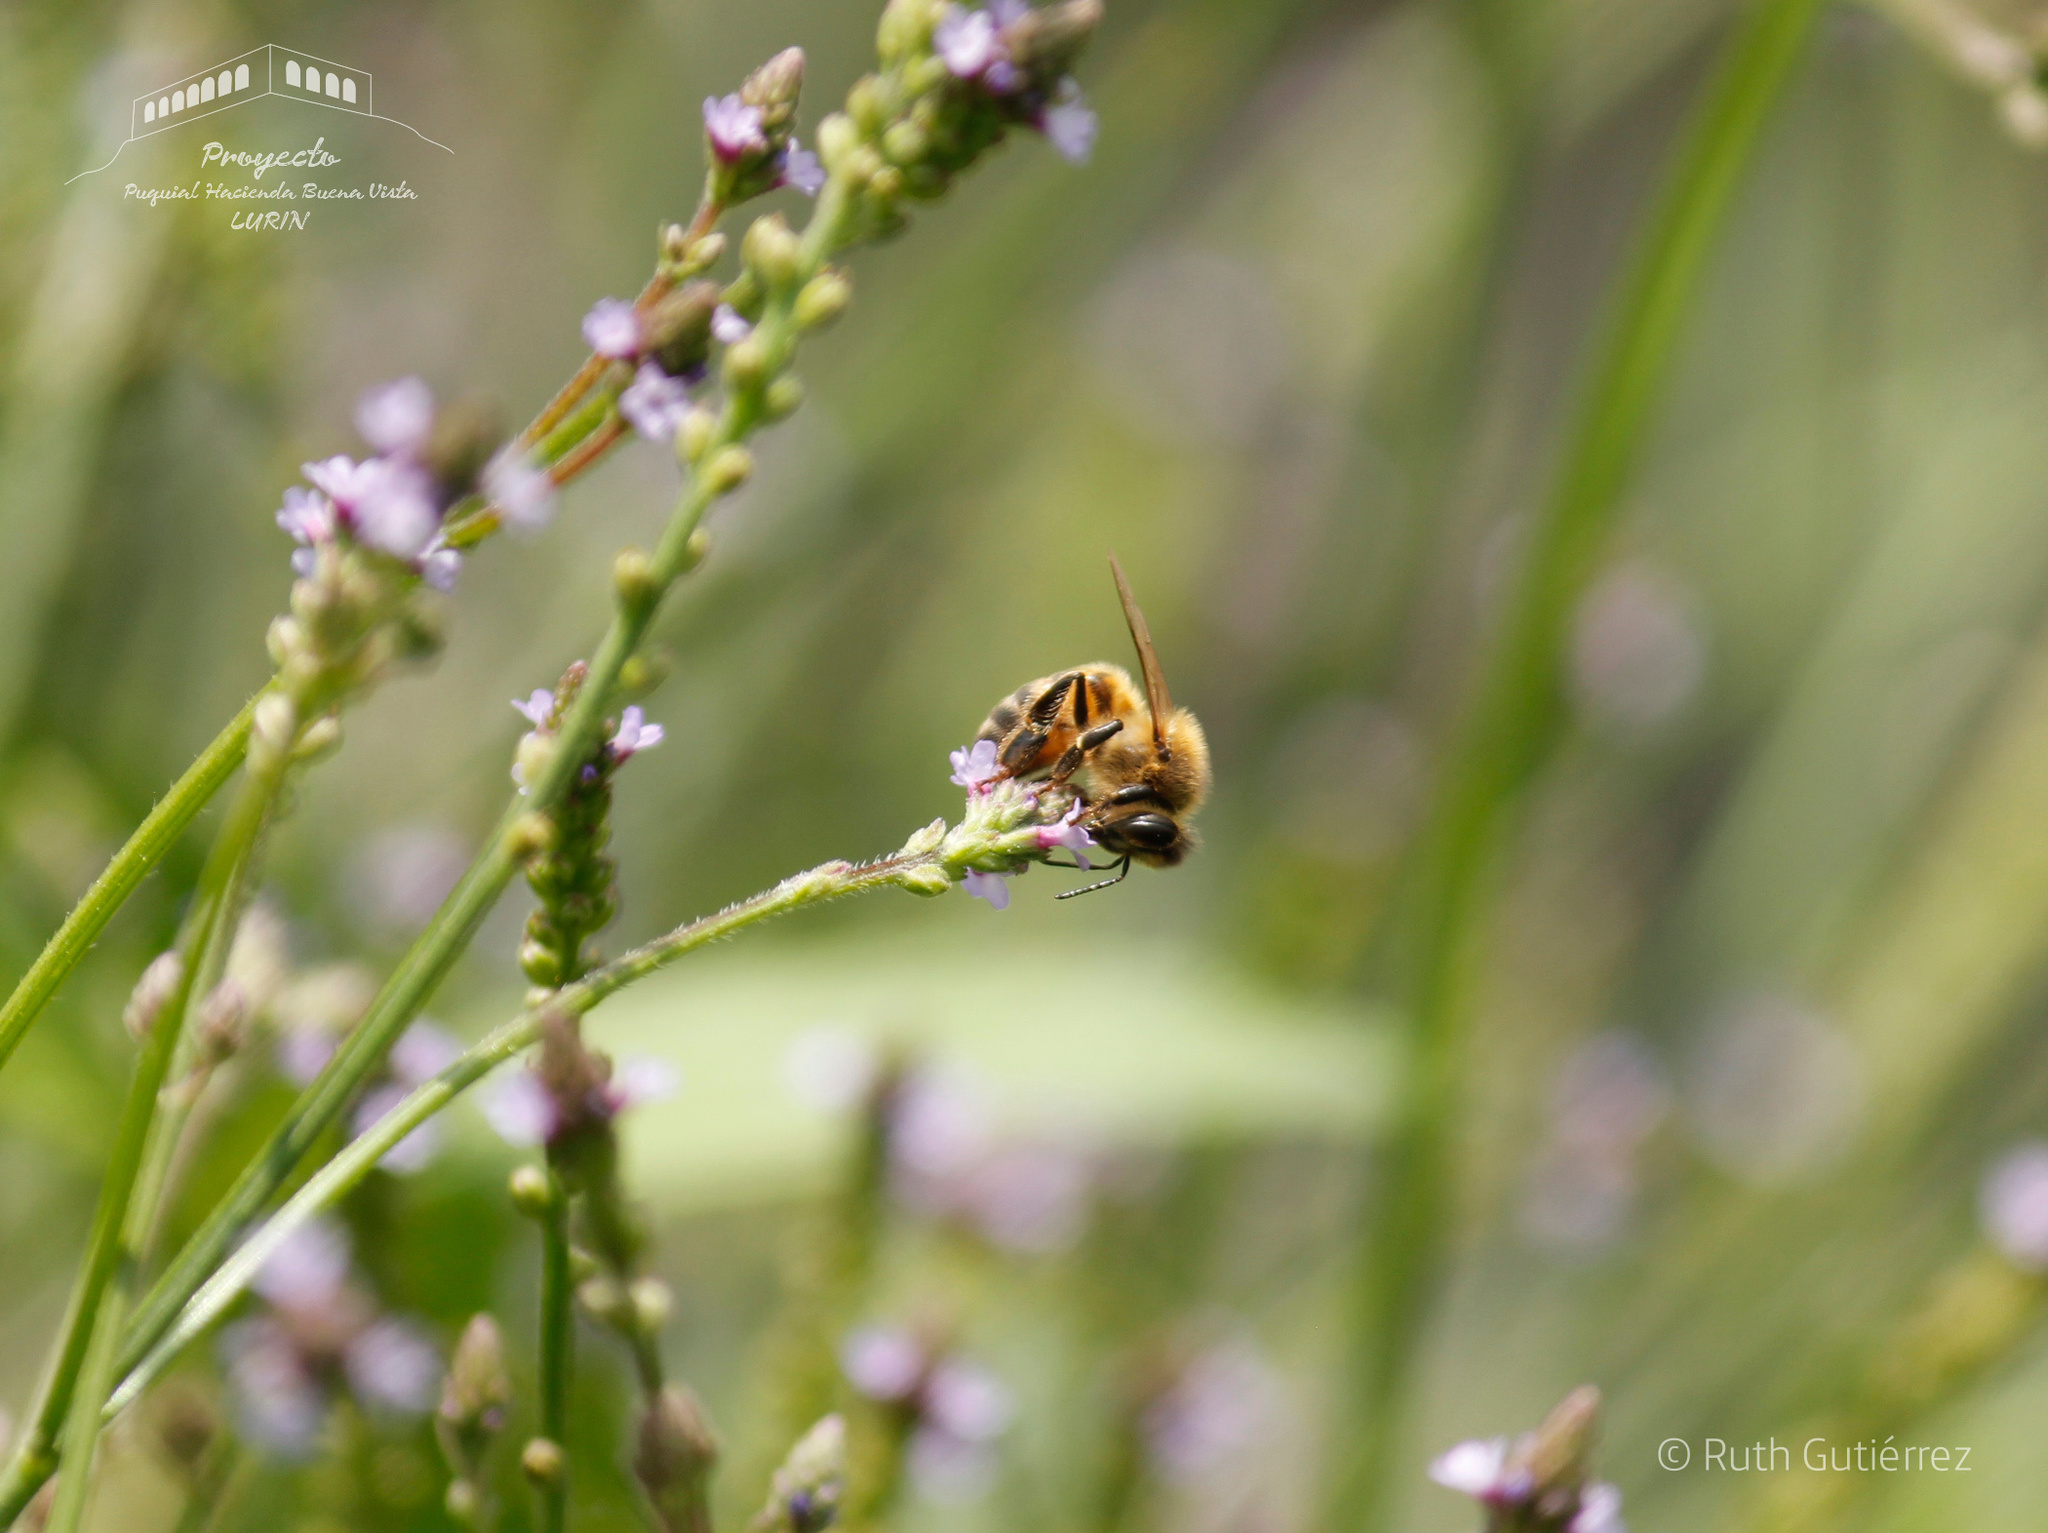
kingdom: Animalia
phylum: Arthropoda
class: Insecta
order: Hymenoptera
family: Apidae
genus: Apis
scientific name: Apis mellifera
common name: Honey bee
